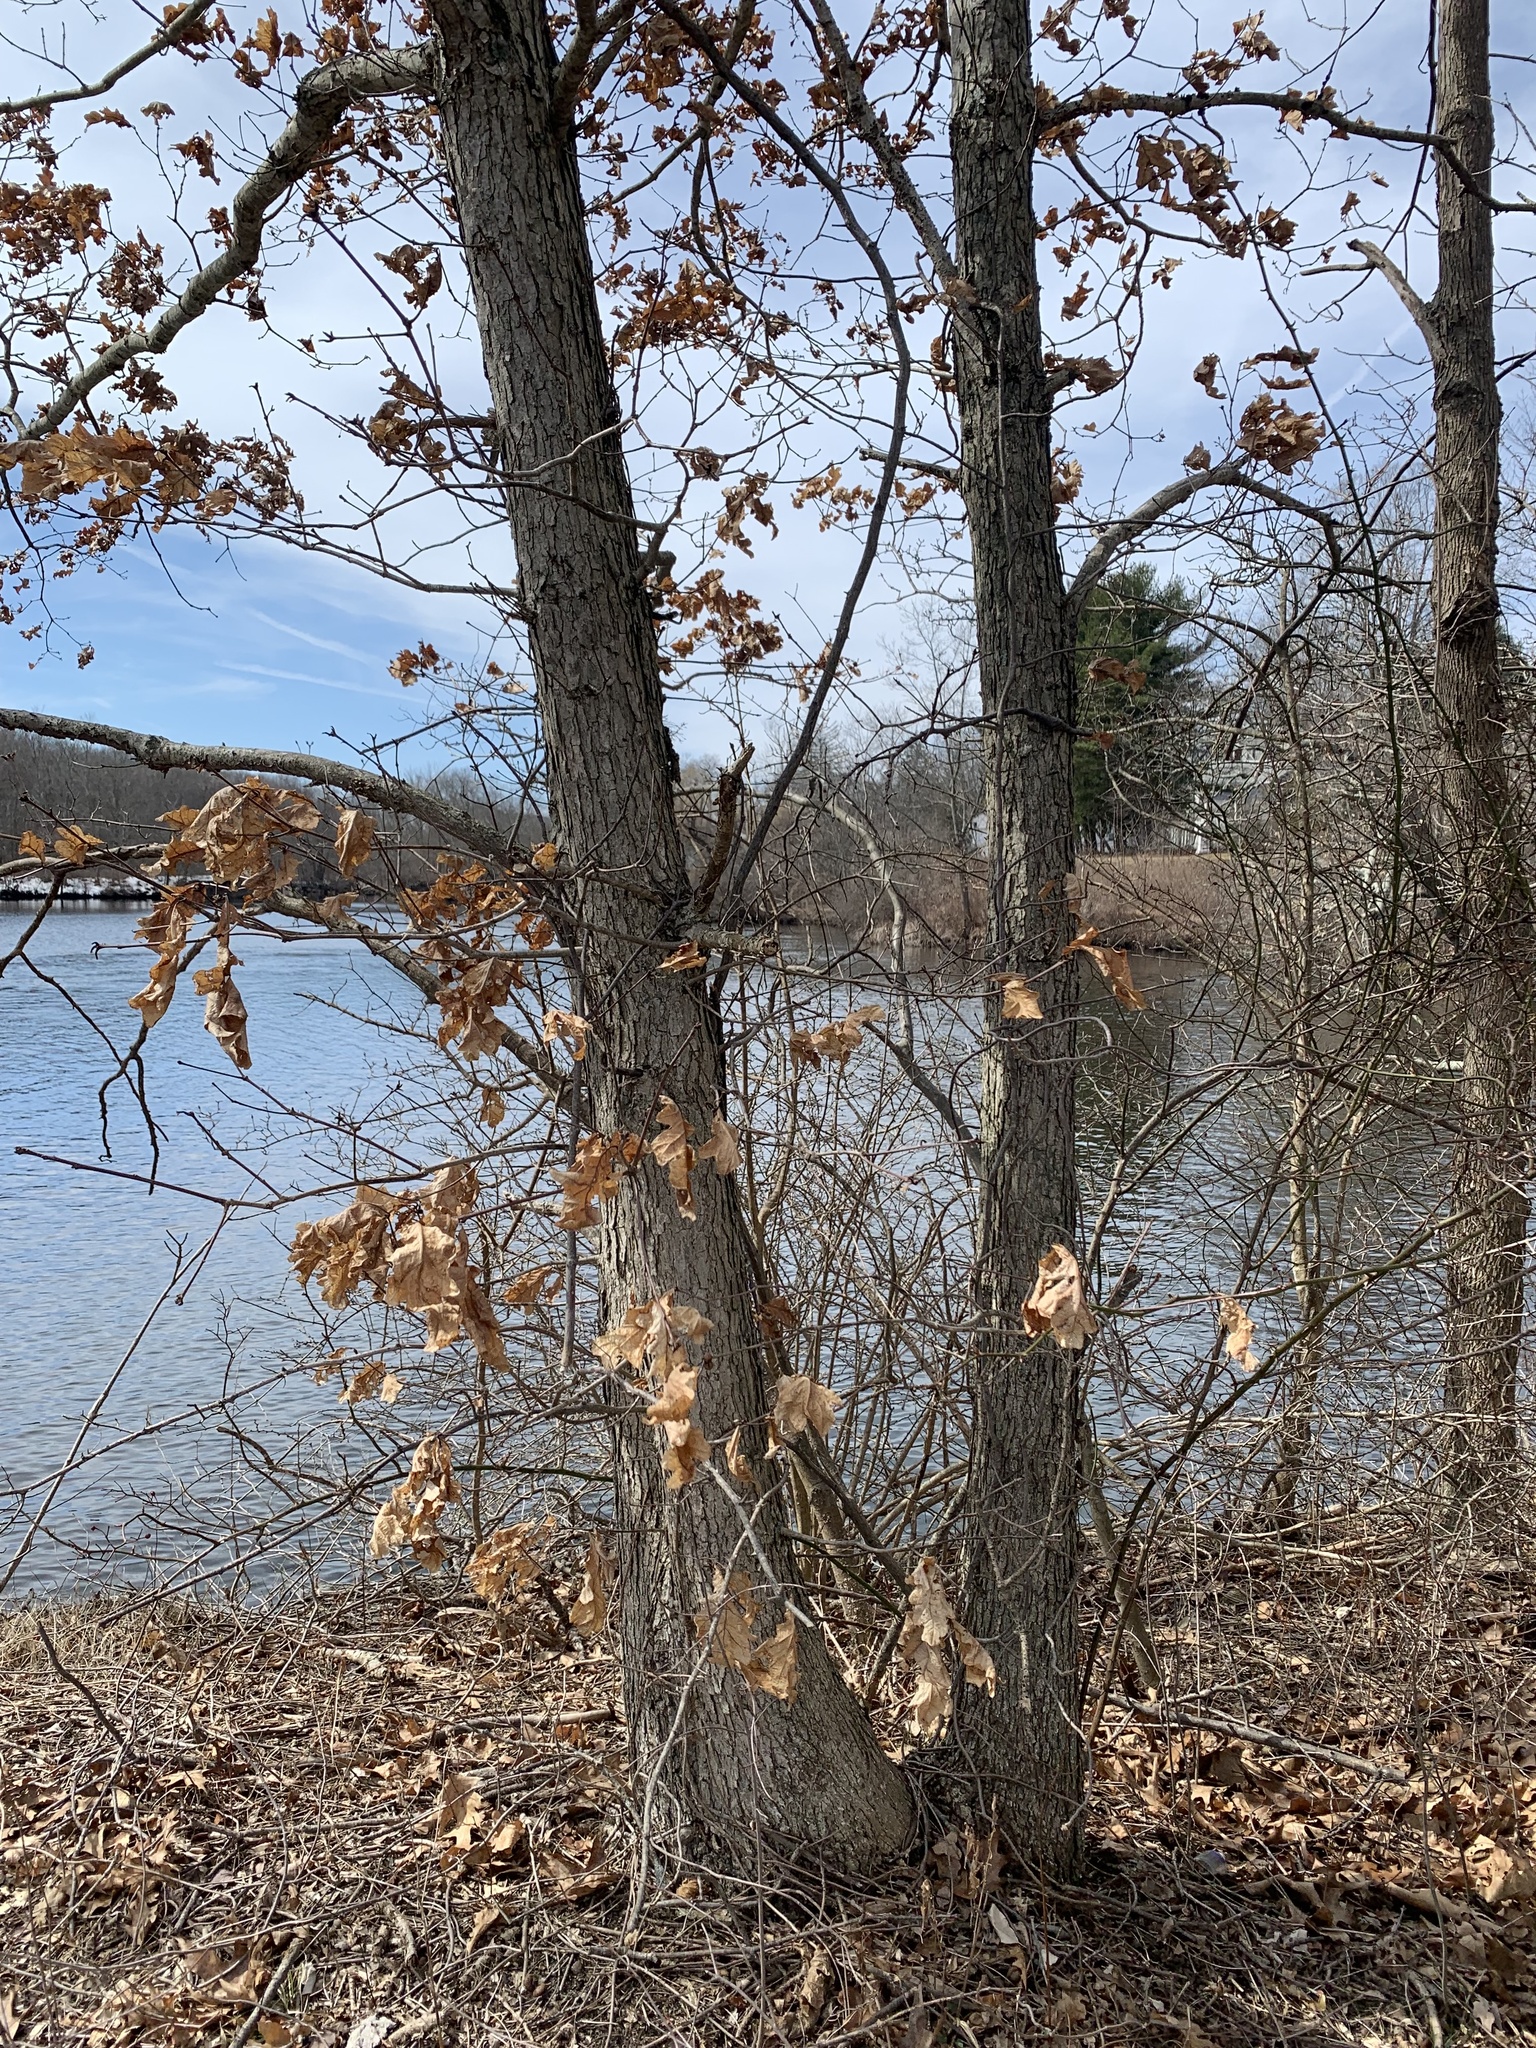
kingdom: Plantae
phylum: Tracheophyta
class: Magnoliopsida
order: Fagales
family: Fagaceae
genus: Quercus
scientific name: Quercus alba
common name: White oak
